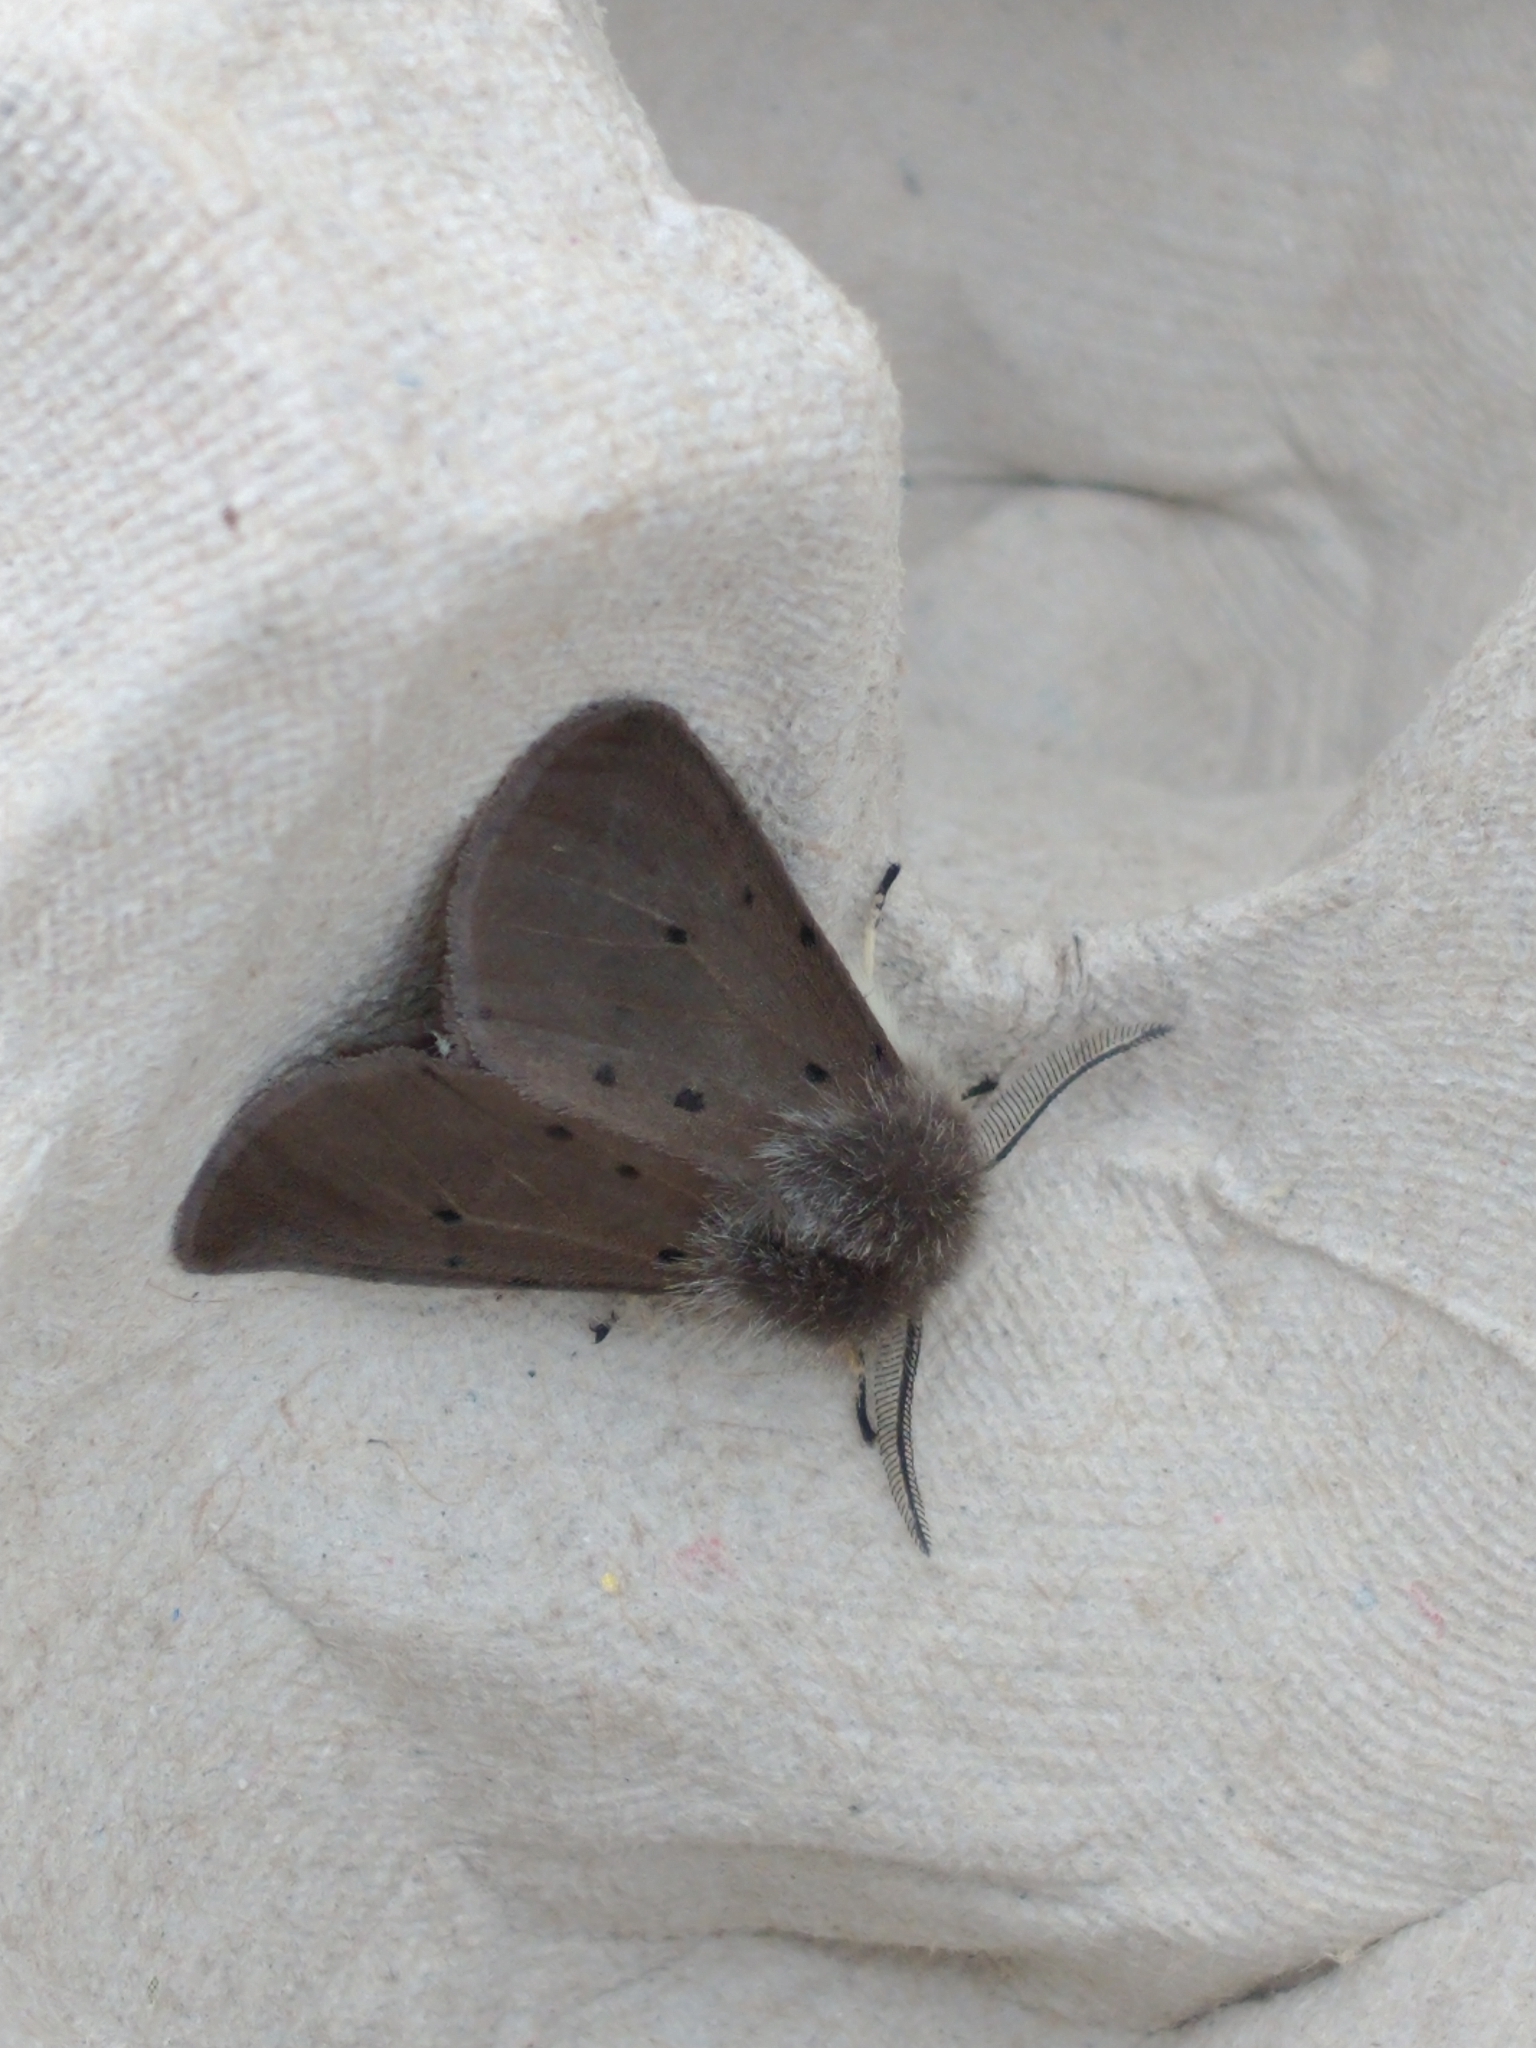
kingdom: Animalia
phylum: Arthropoda
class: Insecta
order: Lepidoptera
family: Erebidae
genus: Diaphora
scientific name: Diaphora mendica
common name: Muslin moth
